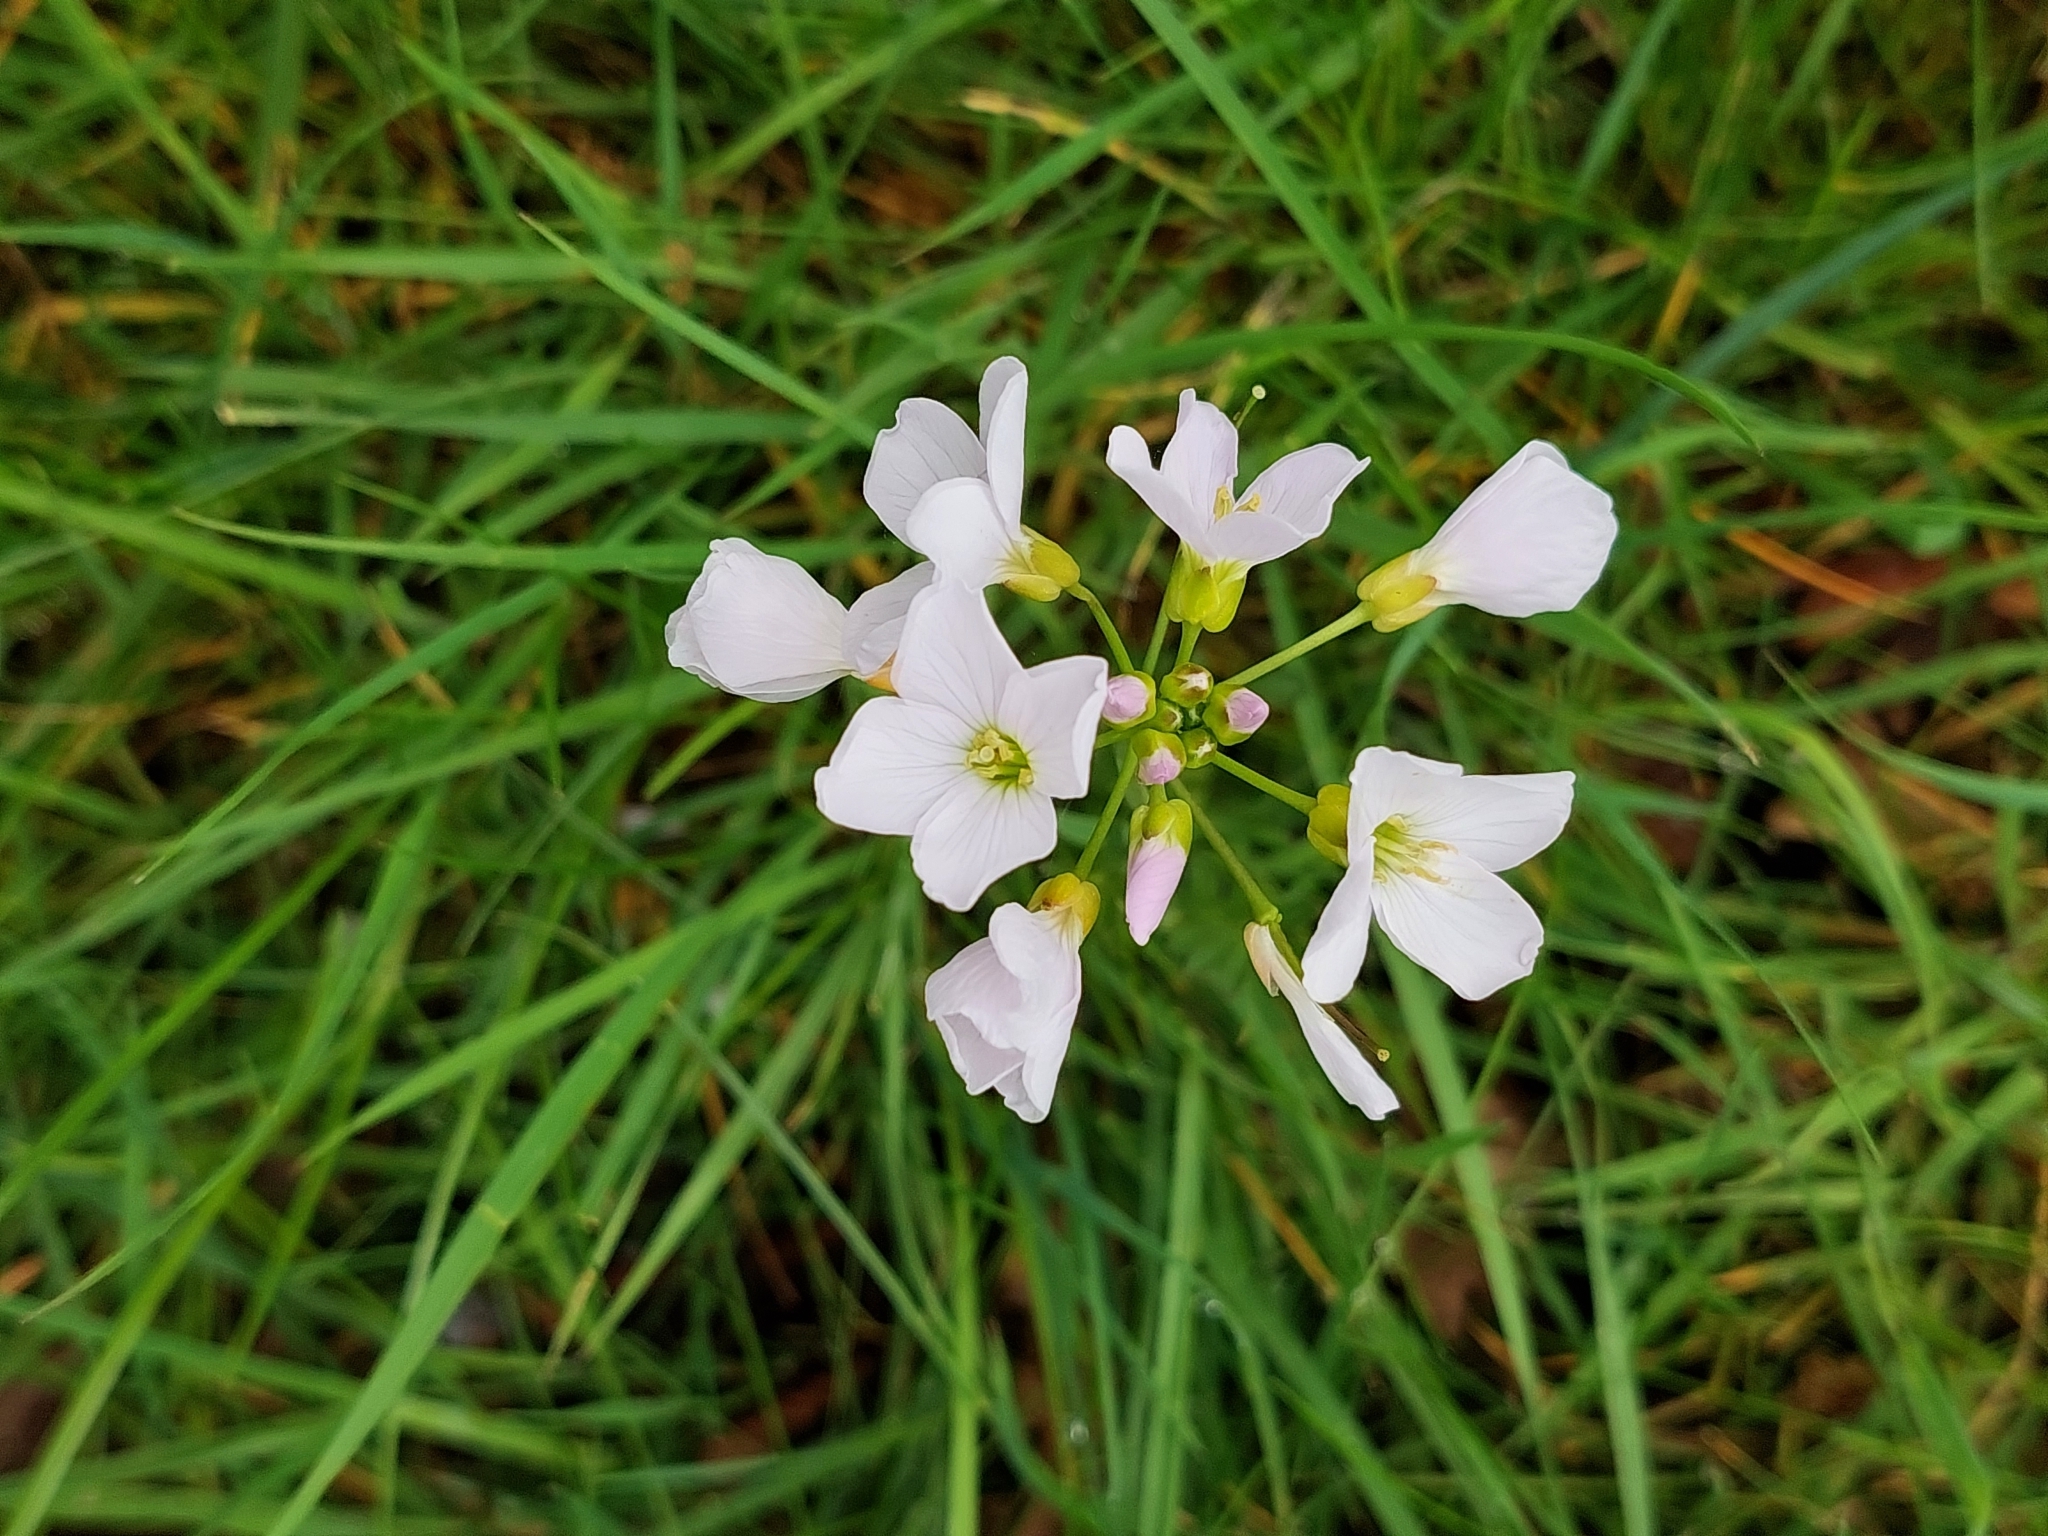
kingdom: Plantae
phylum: Tracheophyta
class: Magnoliopsida
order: Brassicales
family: Brassicaceae
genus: Cardamine
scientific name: Cardamine pratensis
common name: Cuckoo flower
